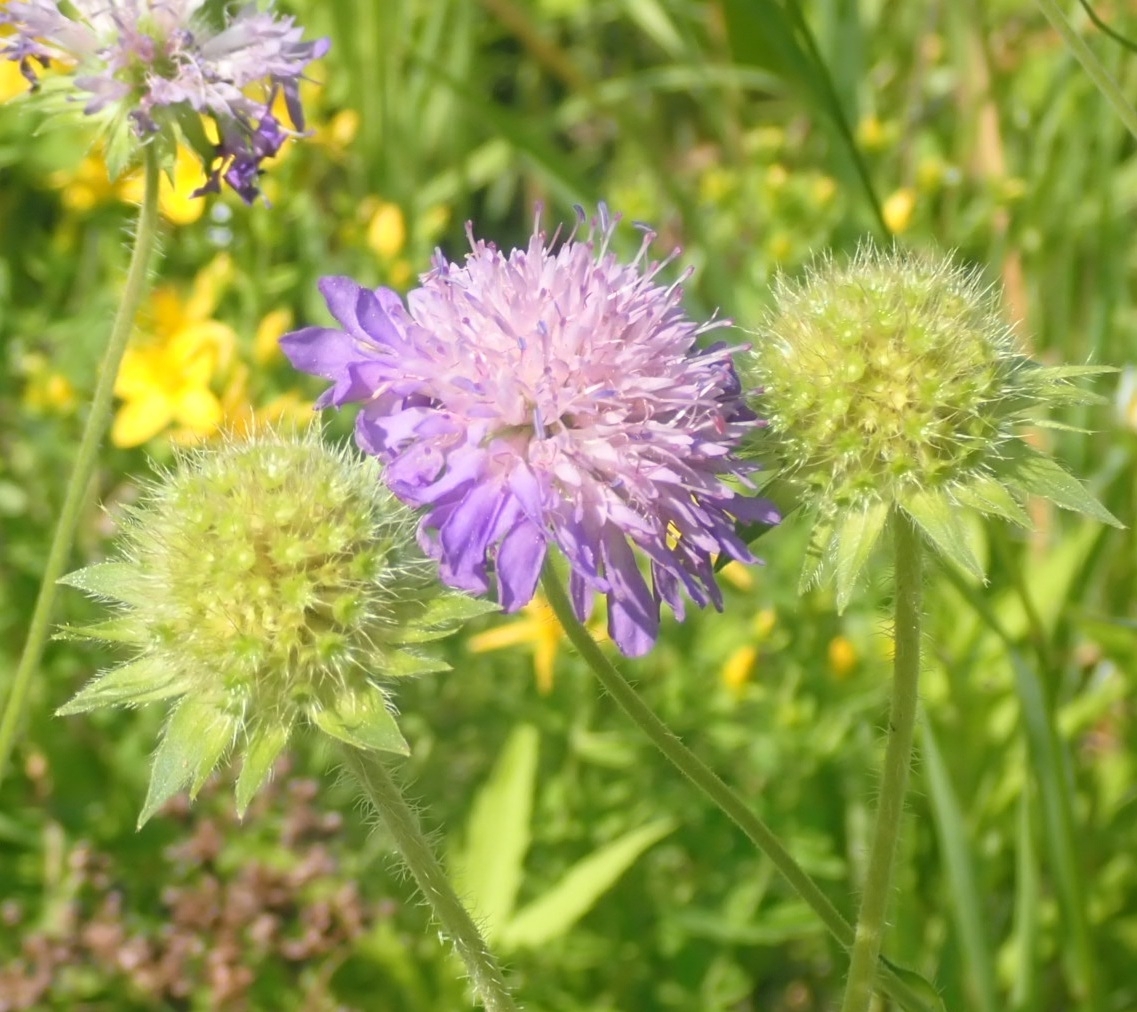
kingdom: Plantae
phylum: Tracheophyta
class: Magnoliopsida
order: Dipsacales
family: Caprifoliaceae
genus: Knautia
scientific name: Knautia arvensis
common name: Field scabiosa
